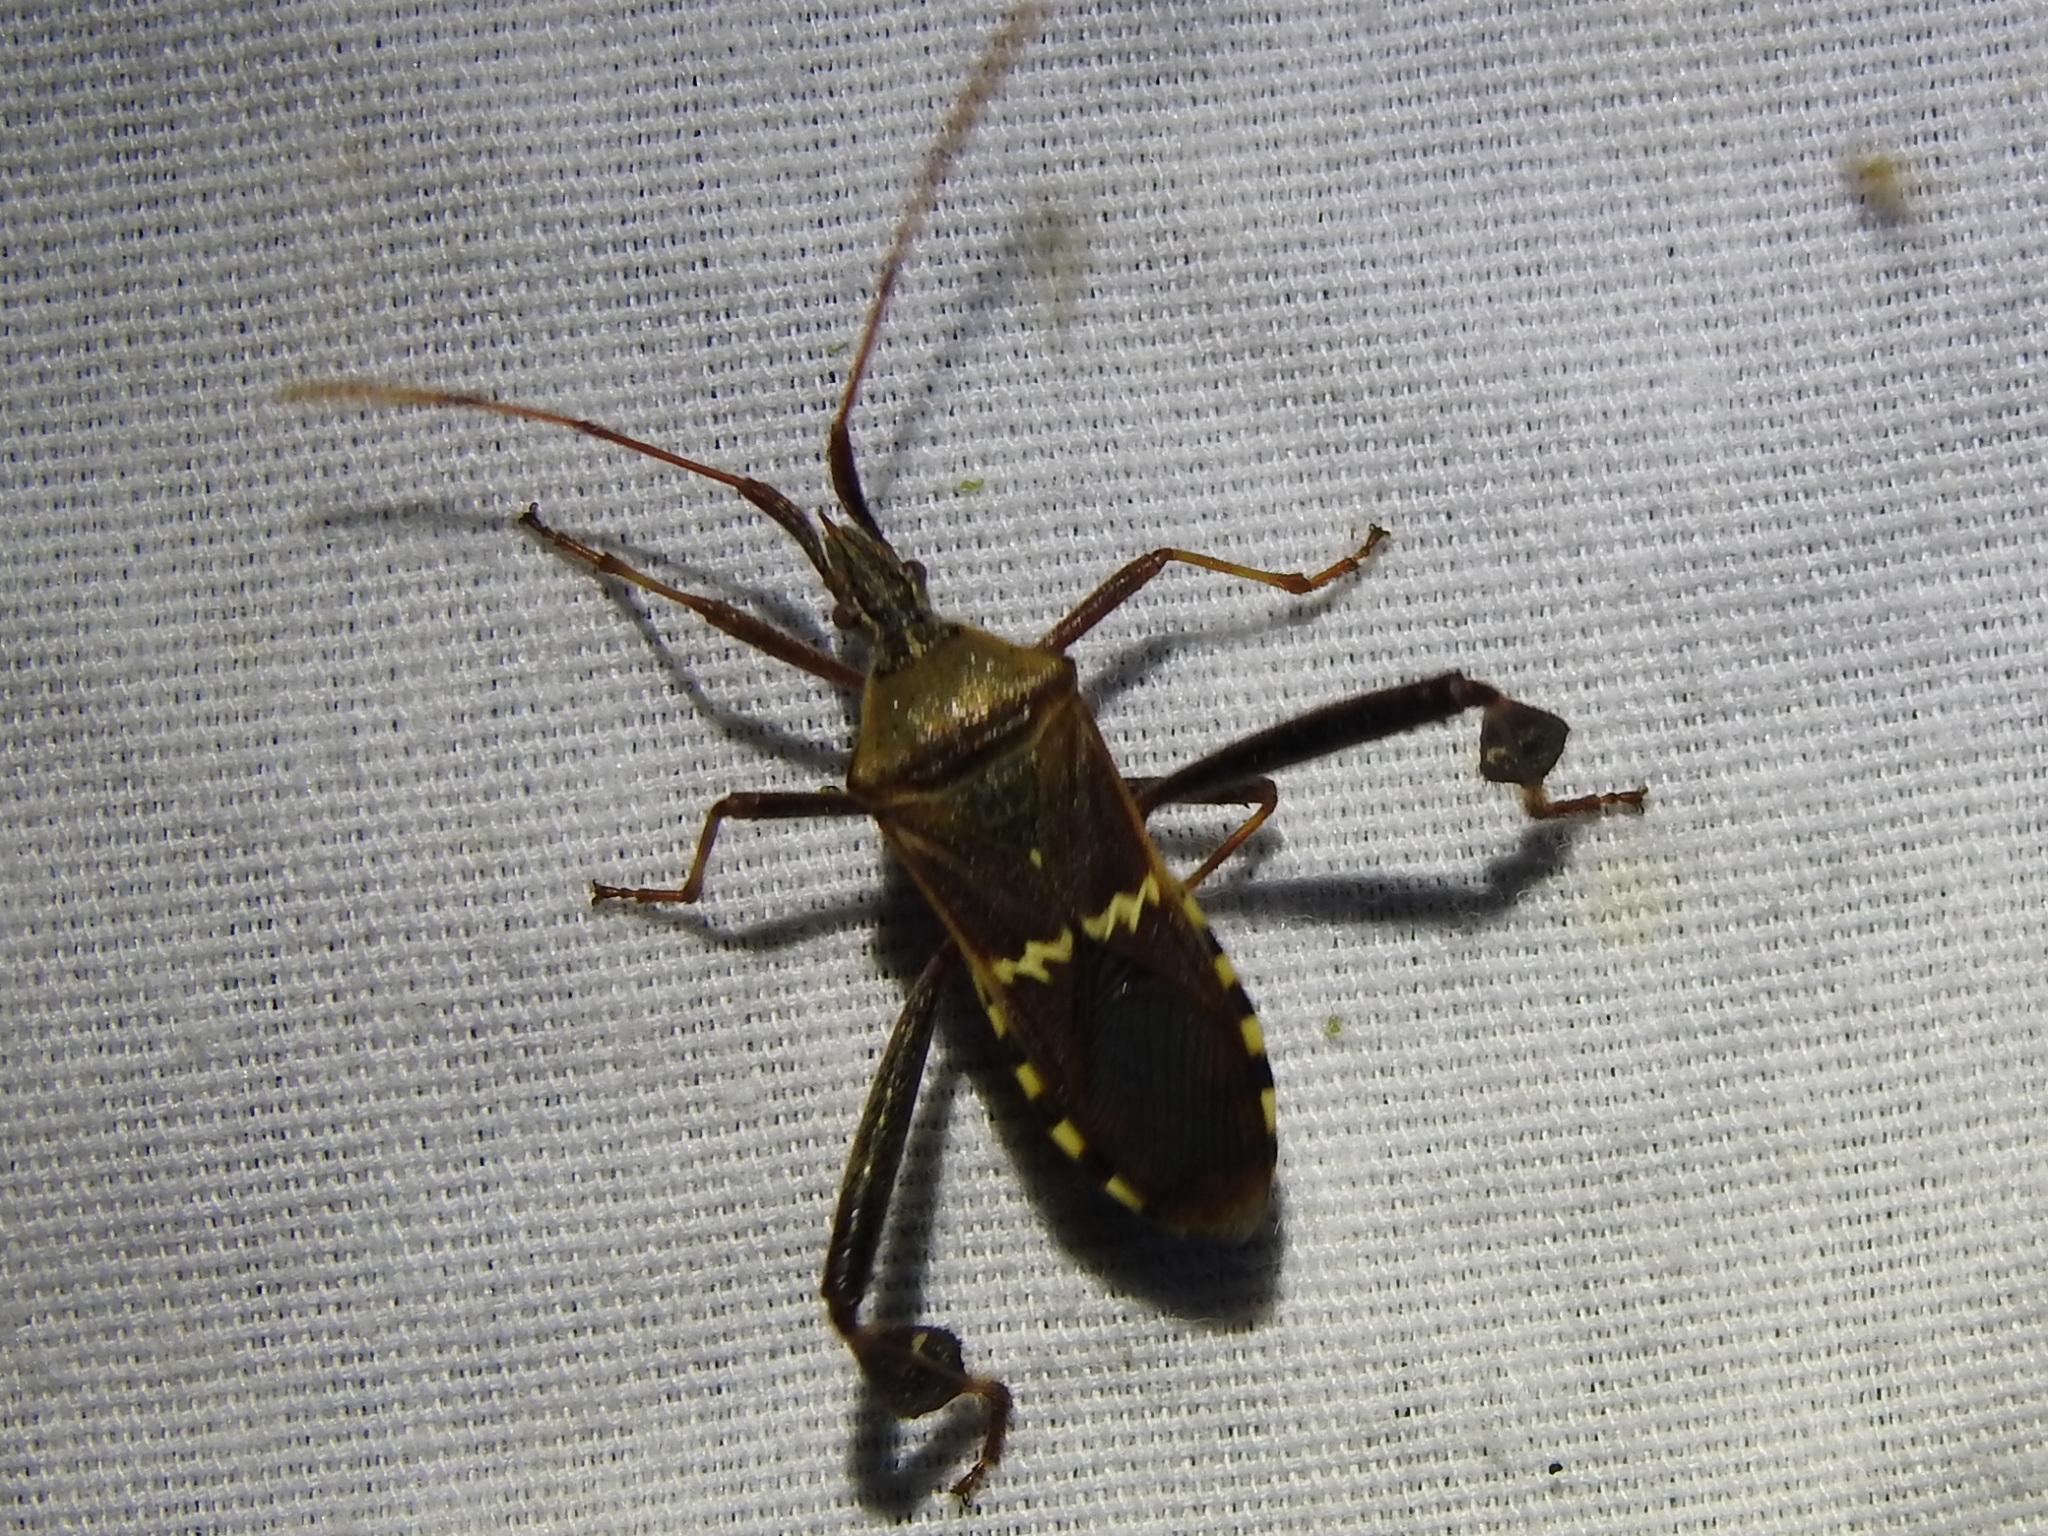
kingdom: Animalia
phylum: Arthropoda
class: Insecta
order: Hemiptera
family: Coreidae
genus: Leptoglossus
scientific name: Leptoglossus clypealis
